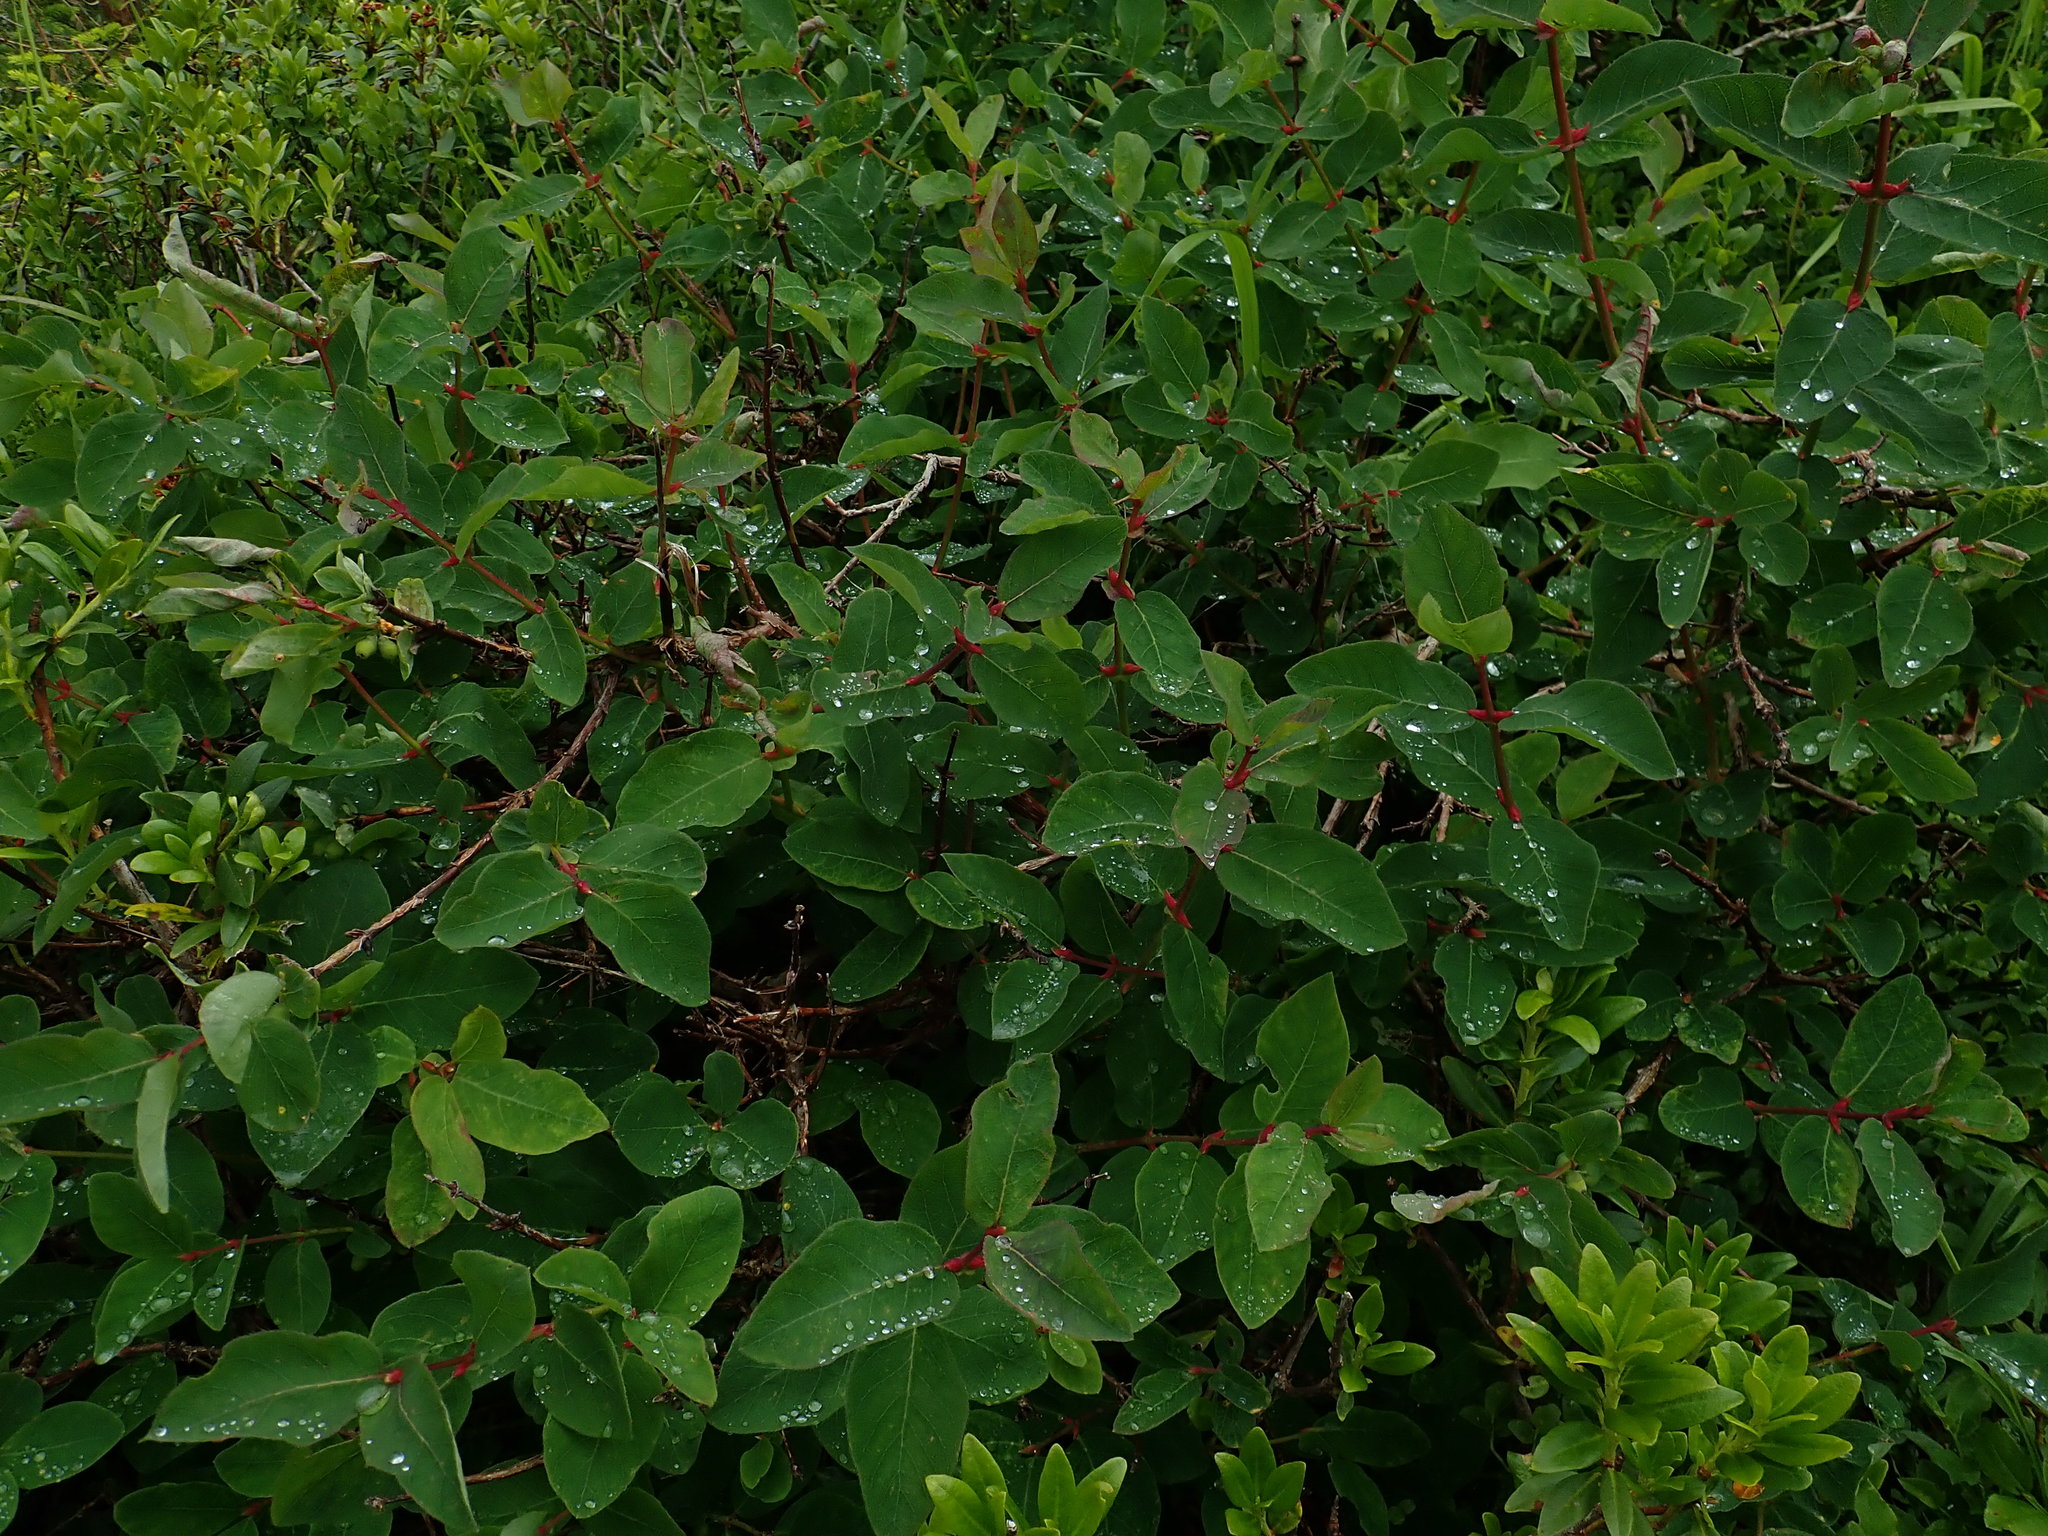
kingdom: Plantae
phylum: Tracheophyta
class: Magnoliopsida
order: Dipsacales
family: Caprifoliaceae
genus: Lonicera
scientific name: Lonicera caerulea
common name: Blue honeysuckle
